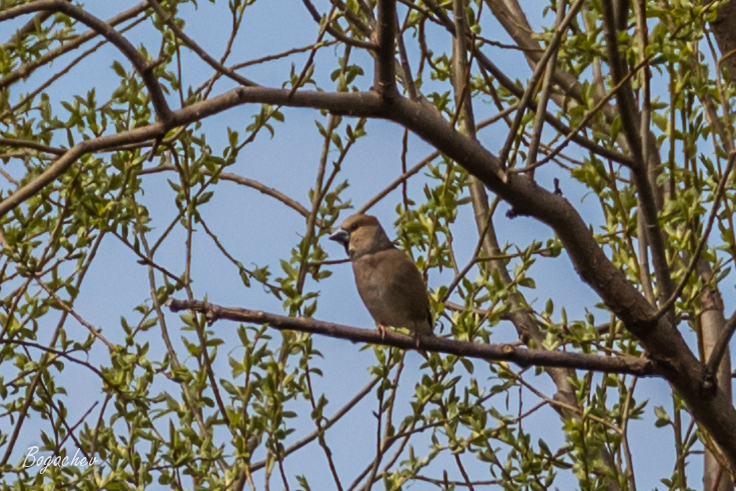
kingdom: Animalia
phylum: Chordata
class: Aves
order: Passeriformes
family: Fringillidae
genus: Coccothraustes
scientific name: Coccothraustes coccothraustes
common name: Hawfinch
